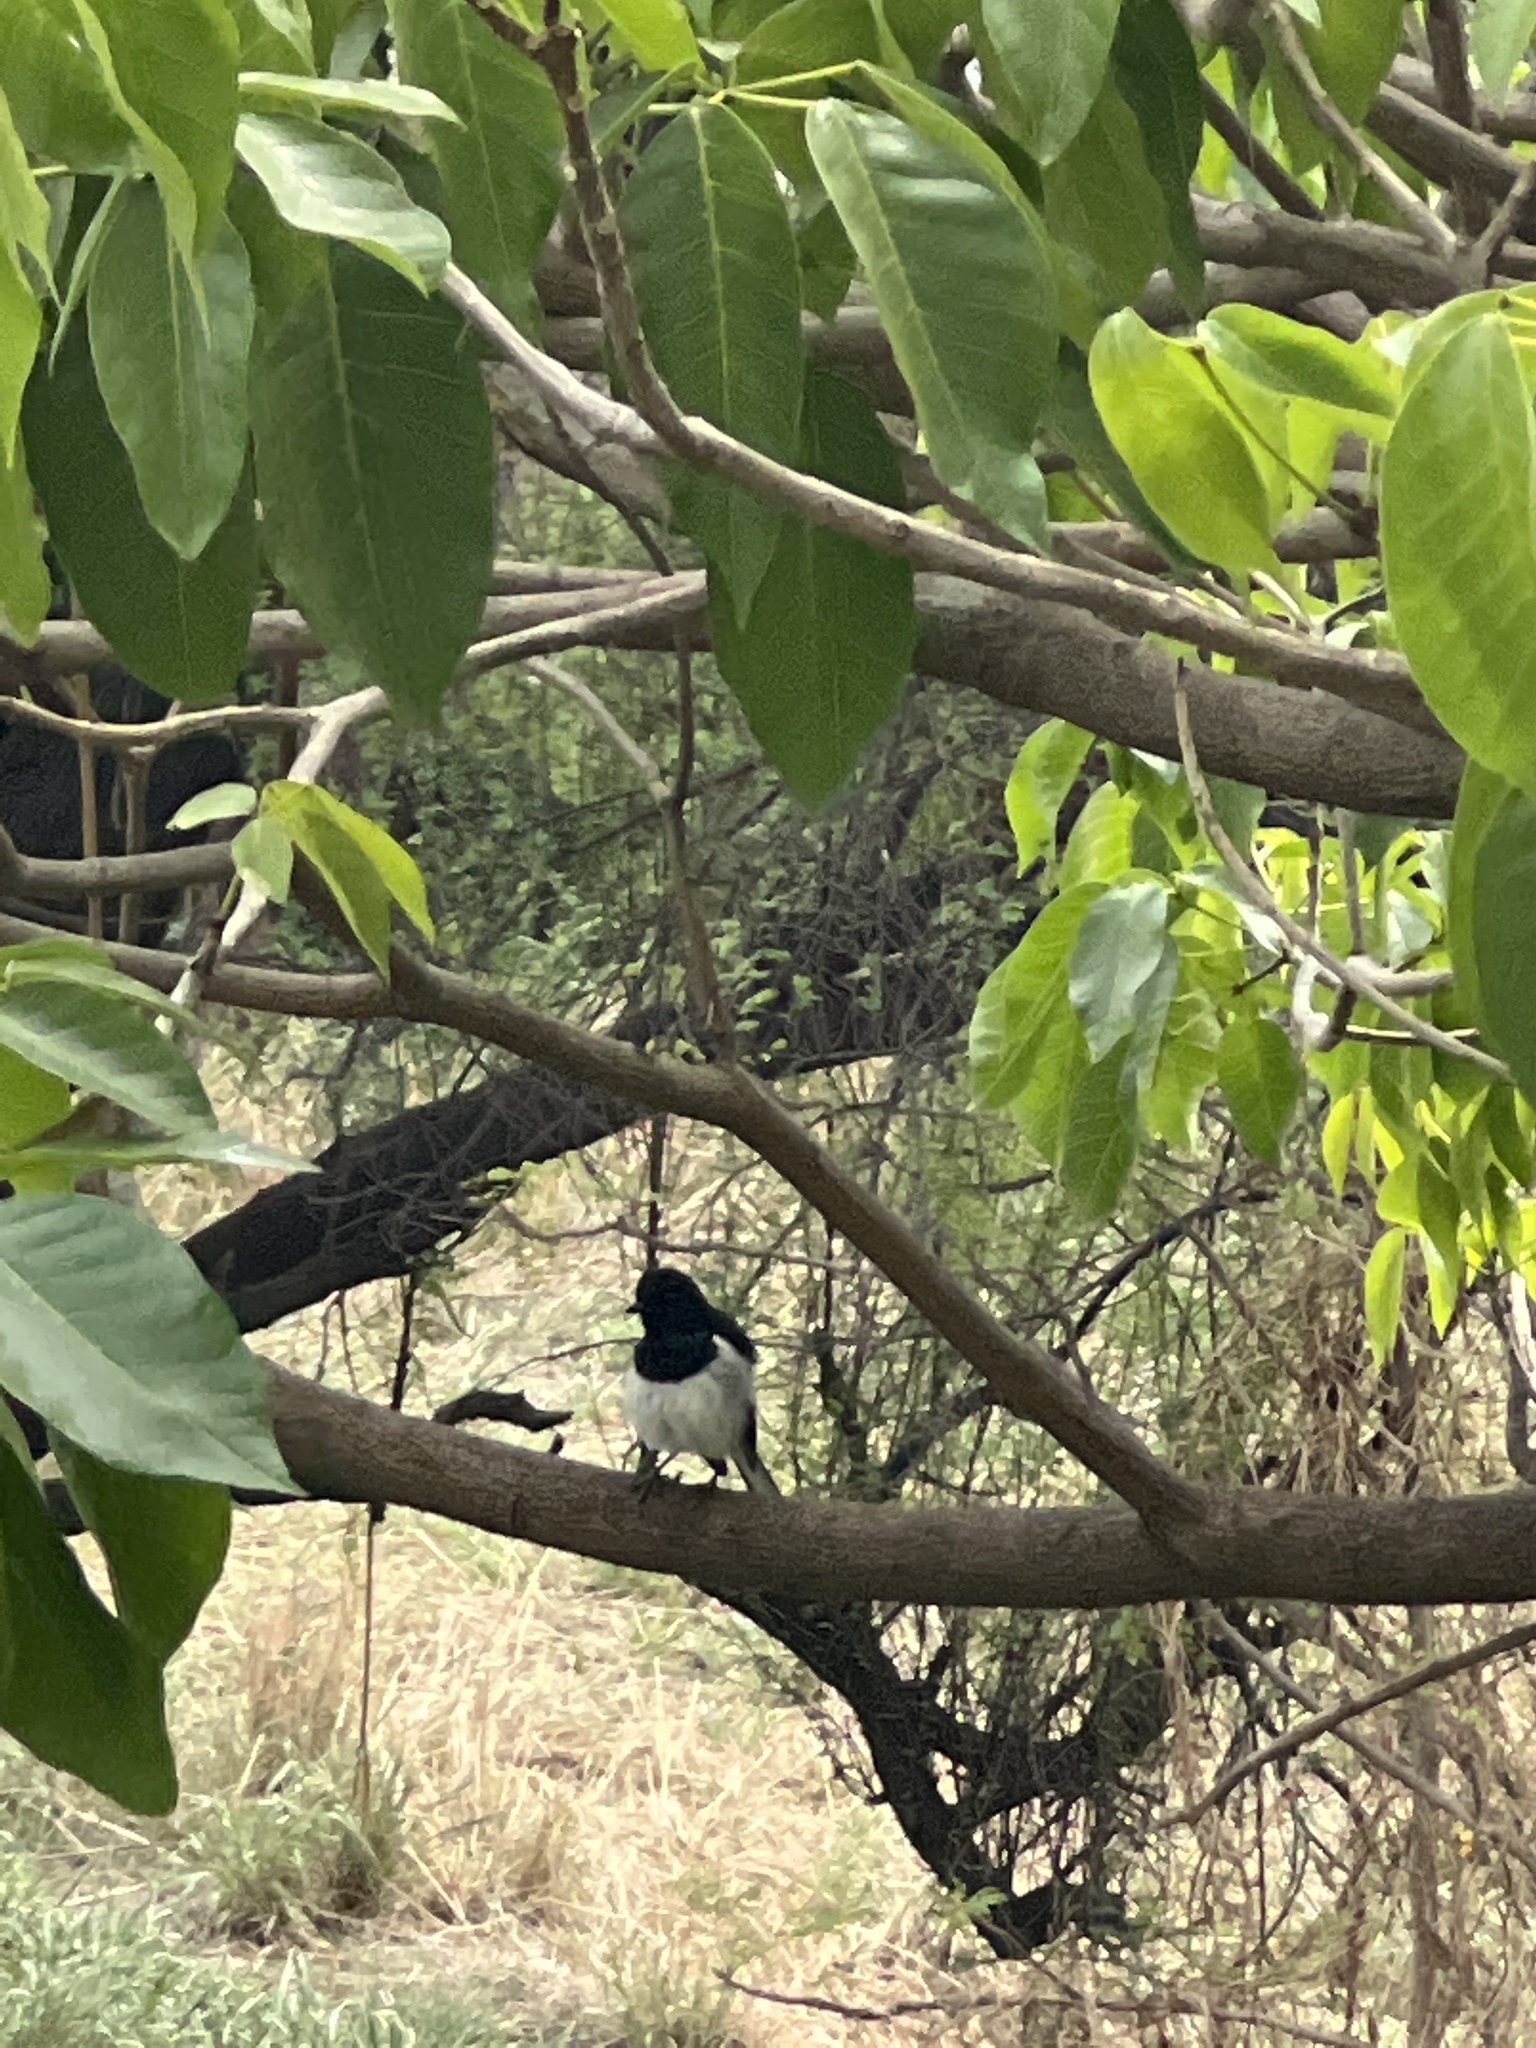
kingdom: Animalia
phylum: Chordata
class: Aves
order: Passeriformes
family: Muscicapidae
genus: Copsychus
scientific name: Copsychus saularis
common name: Oriental magpie-robin
